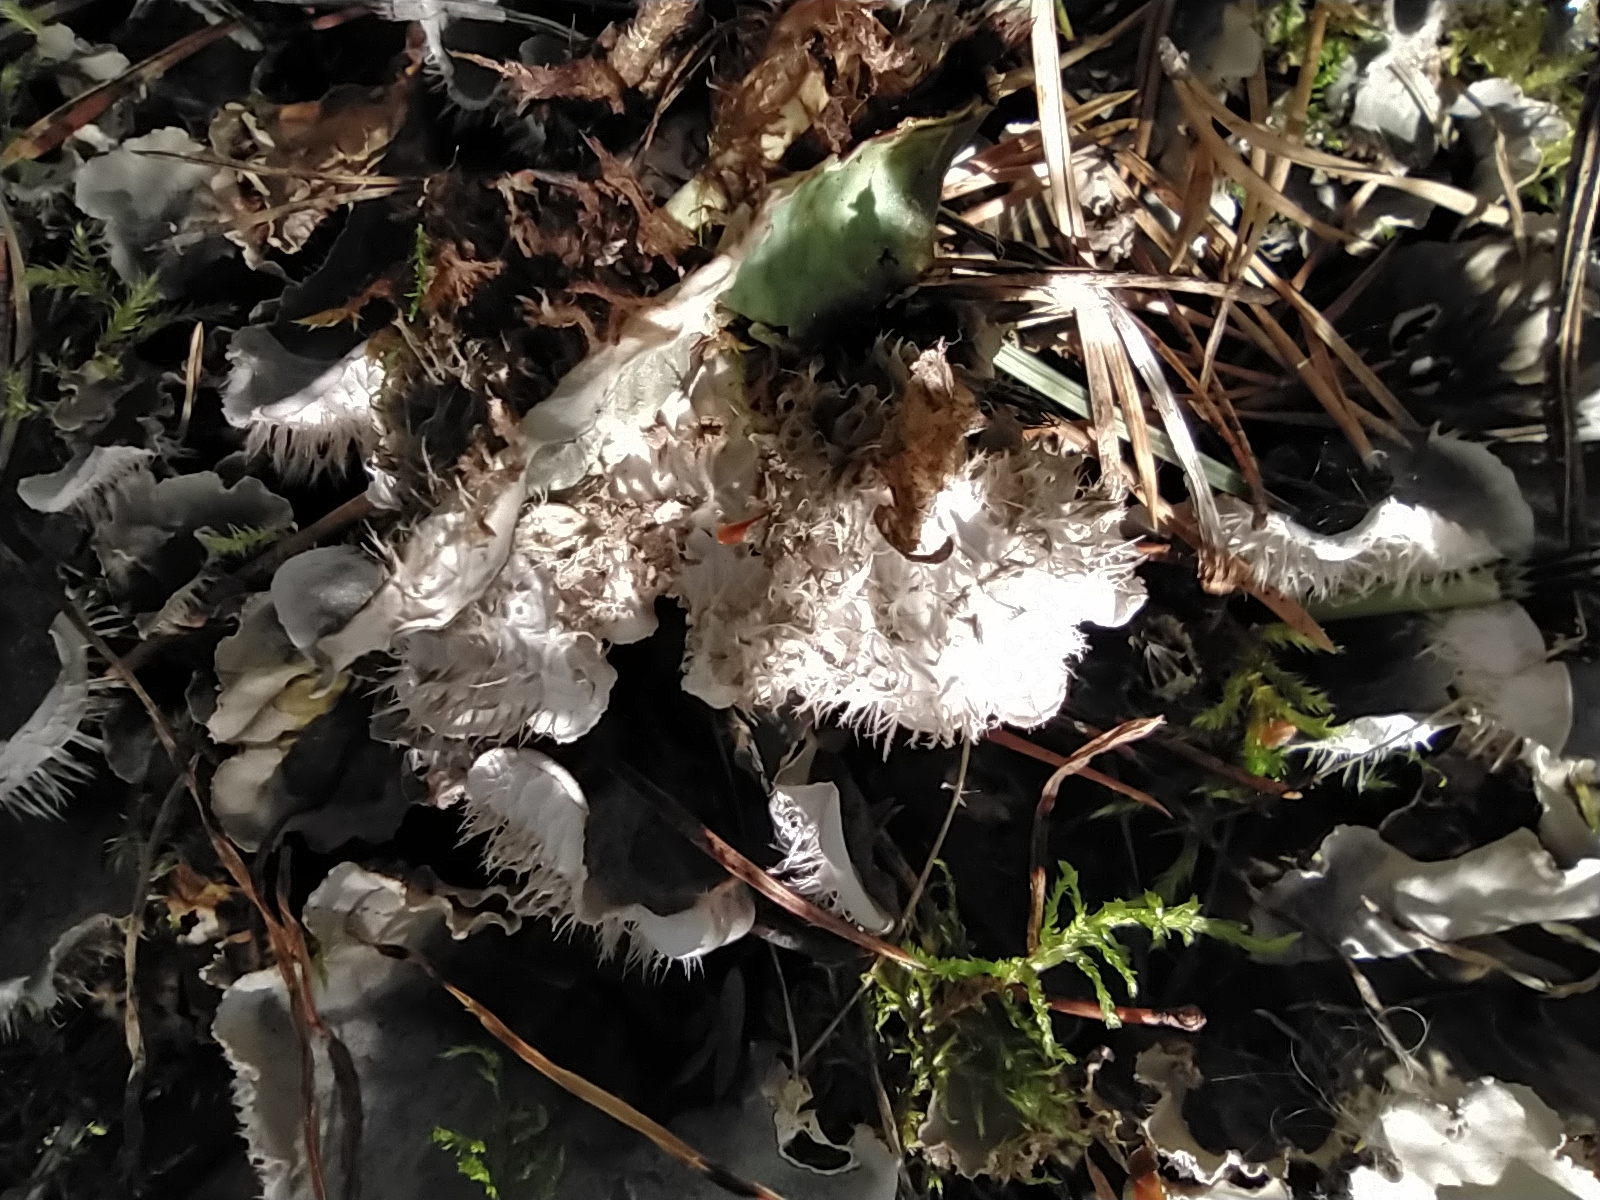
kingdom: Fungi
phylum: Ascomycota
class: Lecanoromycetes
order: Peltigerales
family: Peltigeraceae
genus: Peltigera
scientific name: Peltigera canina
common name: Dog pelt lichen
